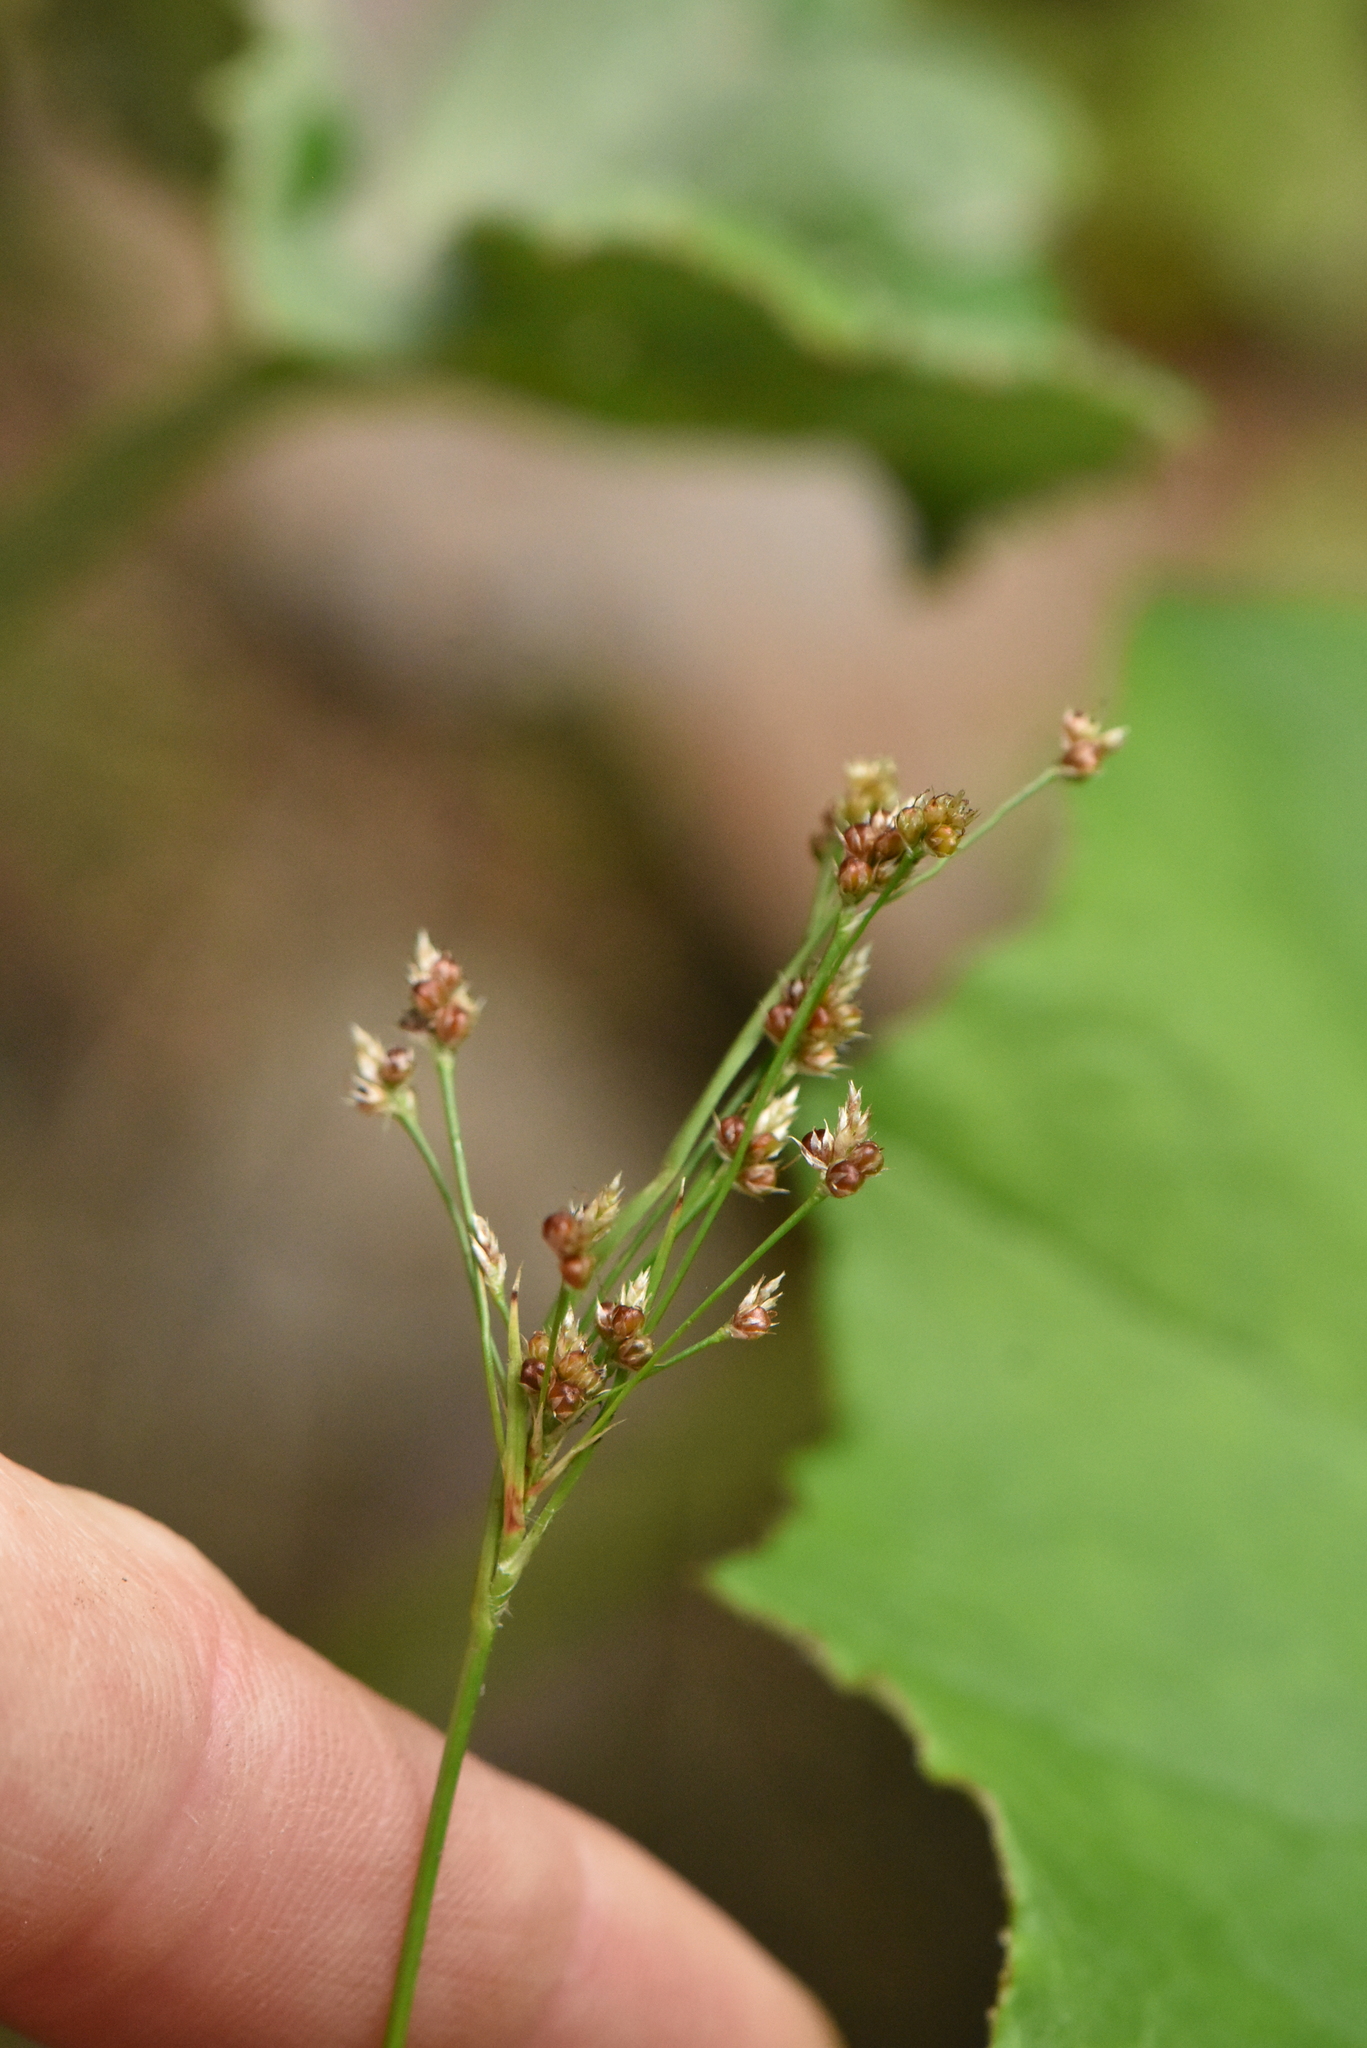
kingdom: Plantae
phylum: Tracheophyta
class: Liliopsida
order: Poales
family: Juncaceae
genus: Luzula
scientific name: Luzula pallescens
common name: Fen wood-rush
